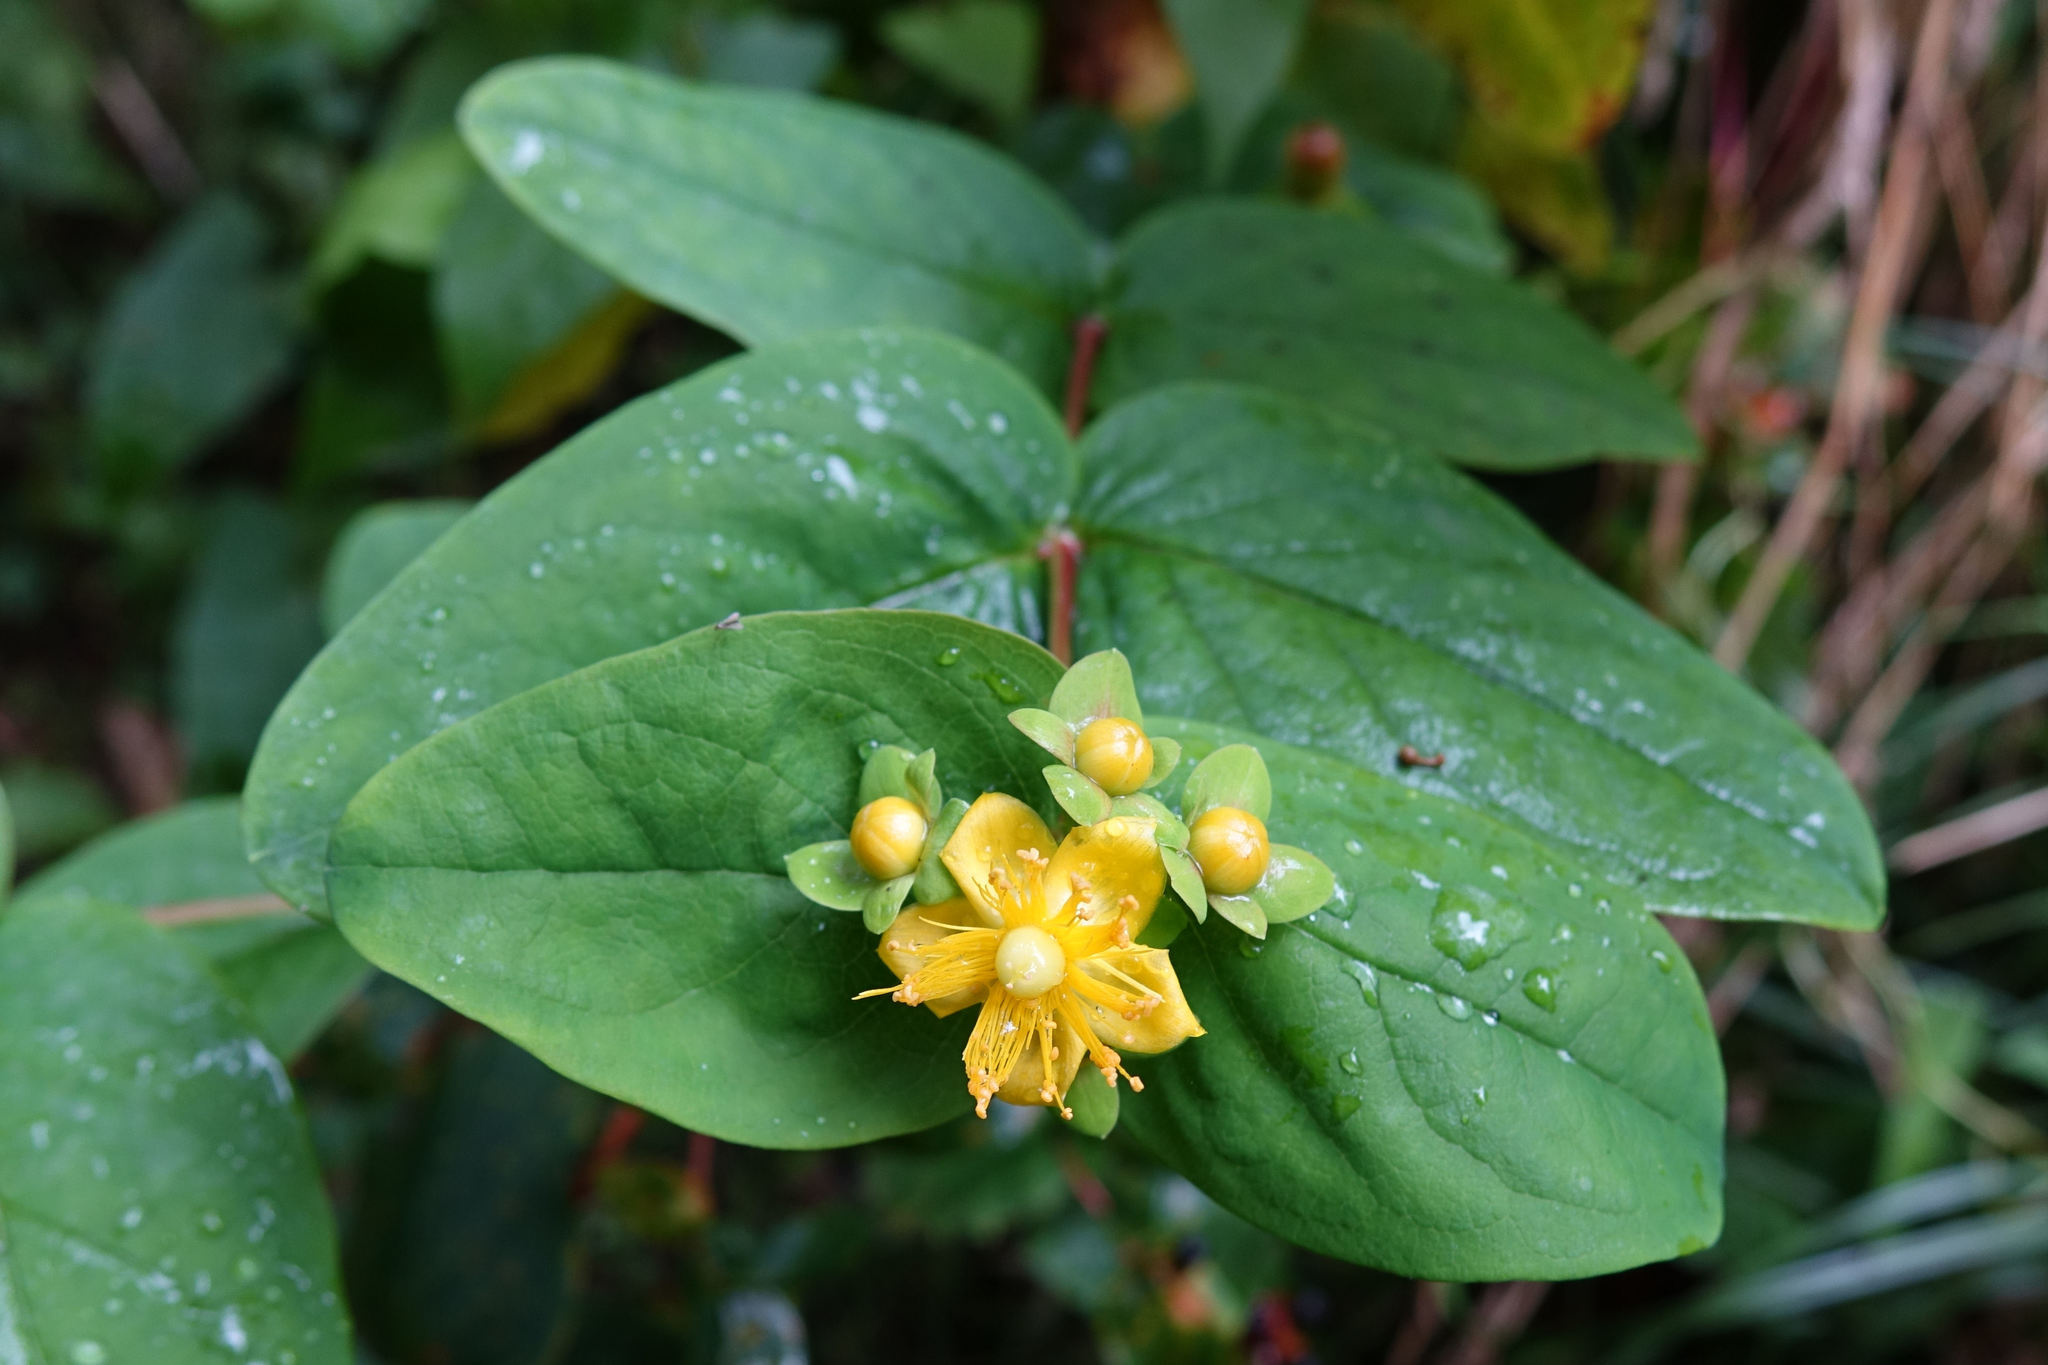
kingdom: Plantae
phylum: Tracheophyta
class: Magnoliopsida
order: Malpighiales
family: Hypericaceae
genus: Hypericum
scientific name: Hypericum androsaemum
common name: Sweet-amber
